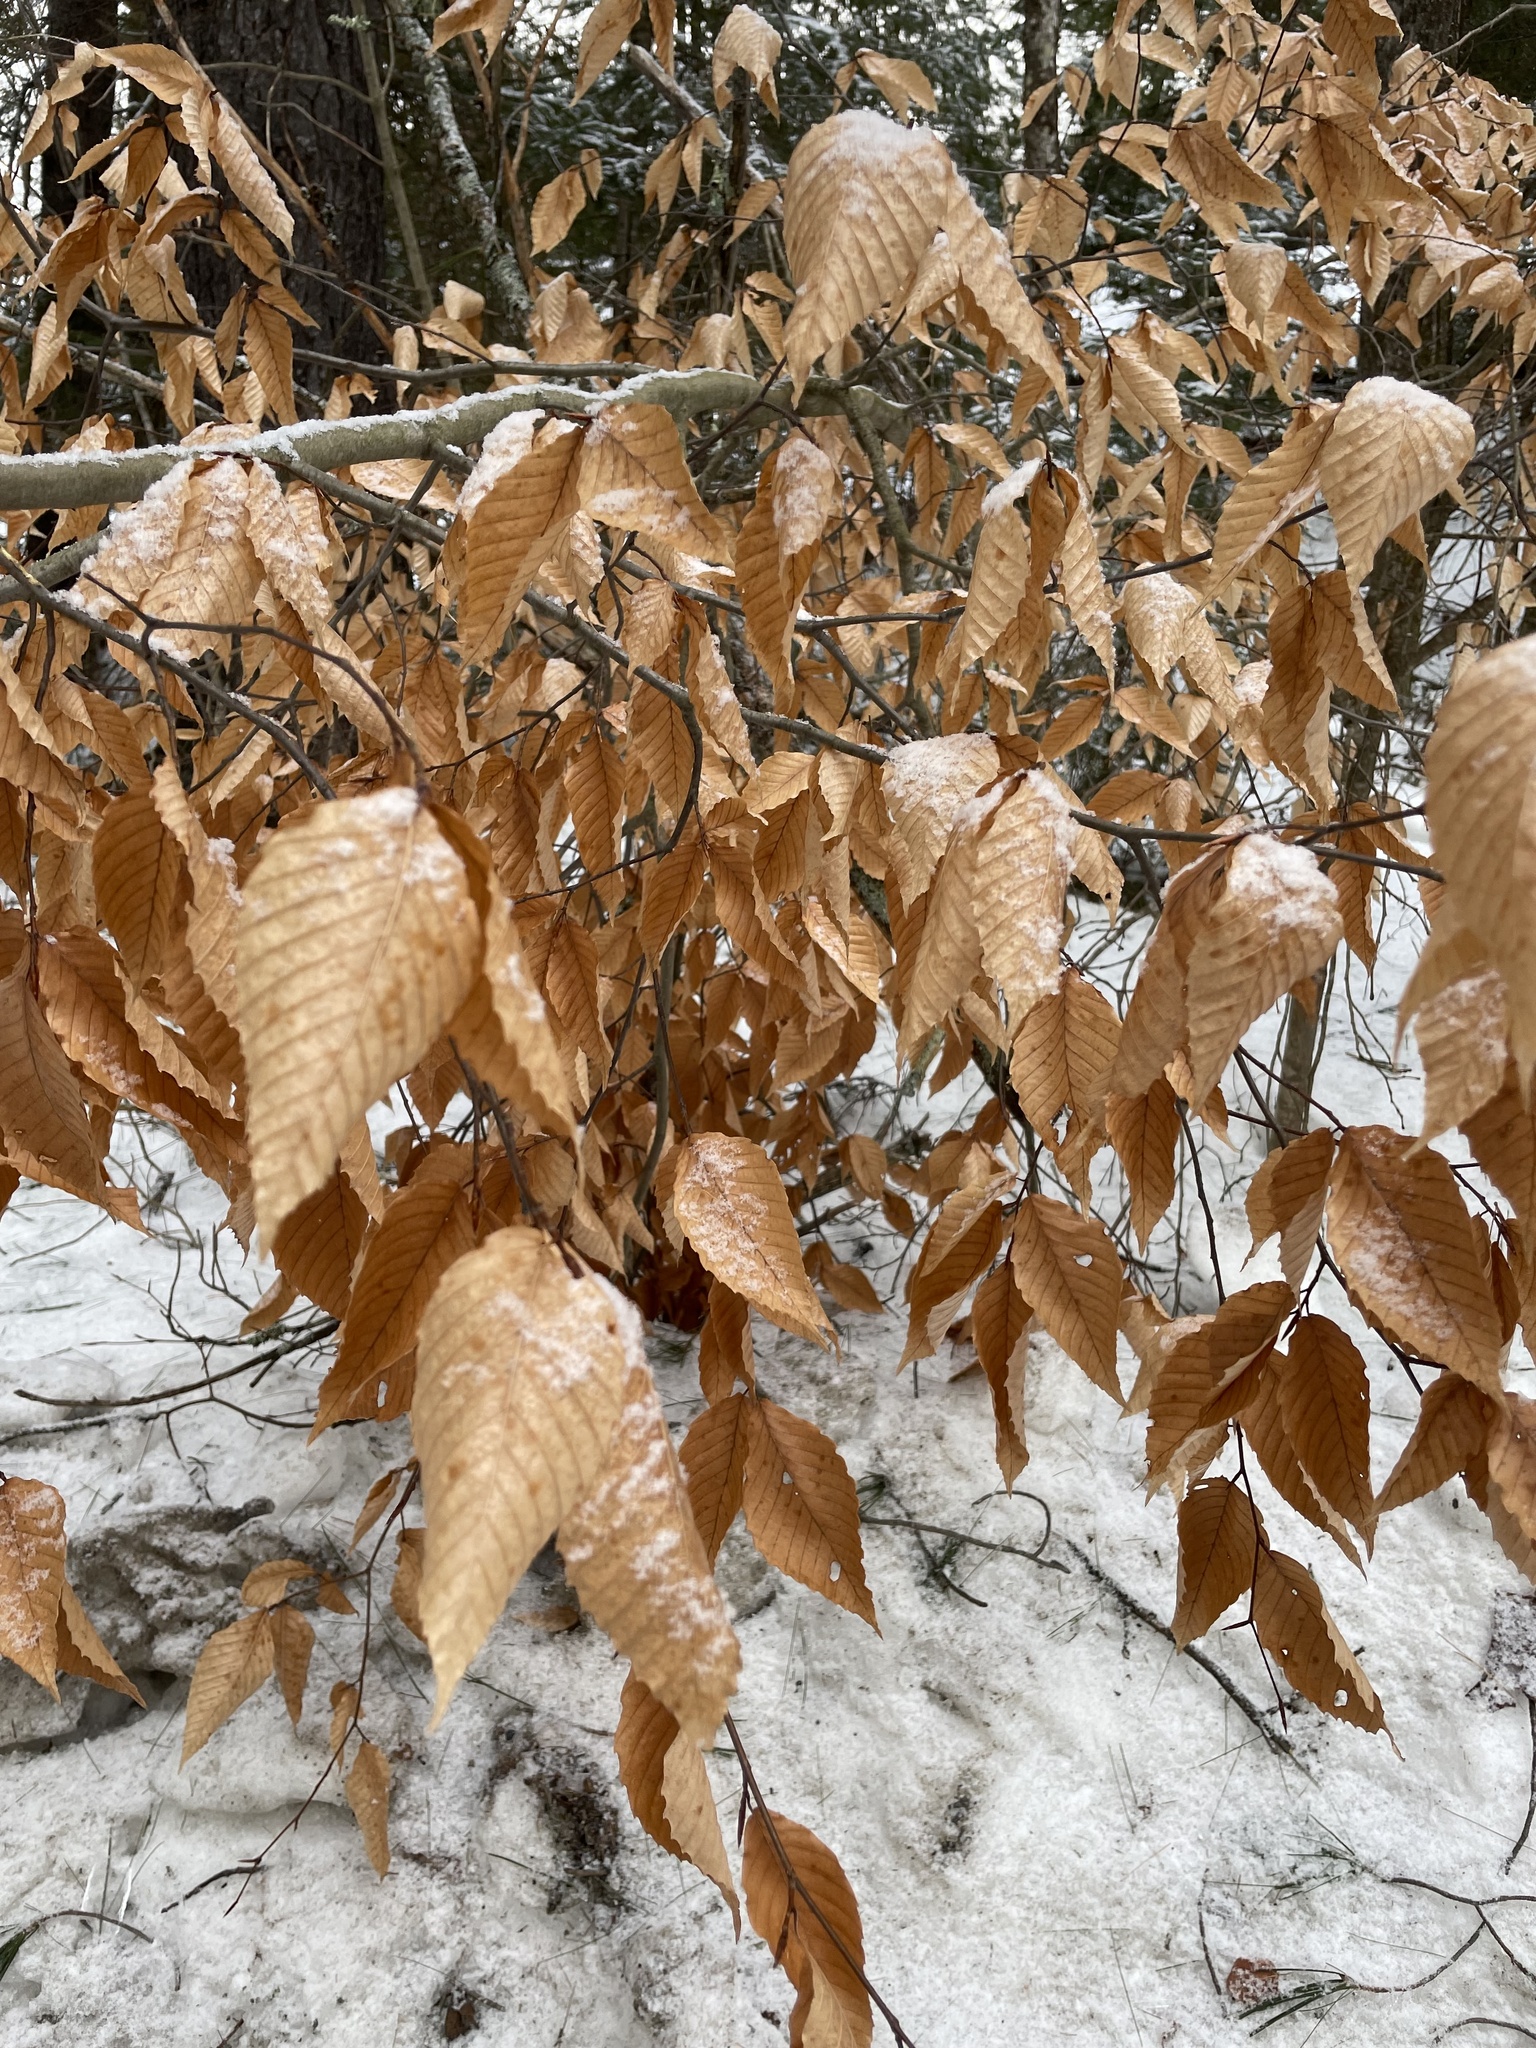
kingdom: Plantae
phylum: Tracheophyta
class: Magnoliopsida
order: Fagales
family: Fagaceae
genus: Fagus
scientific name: Fagus grandifolia
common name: American beech
